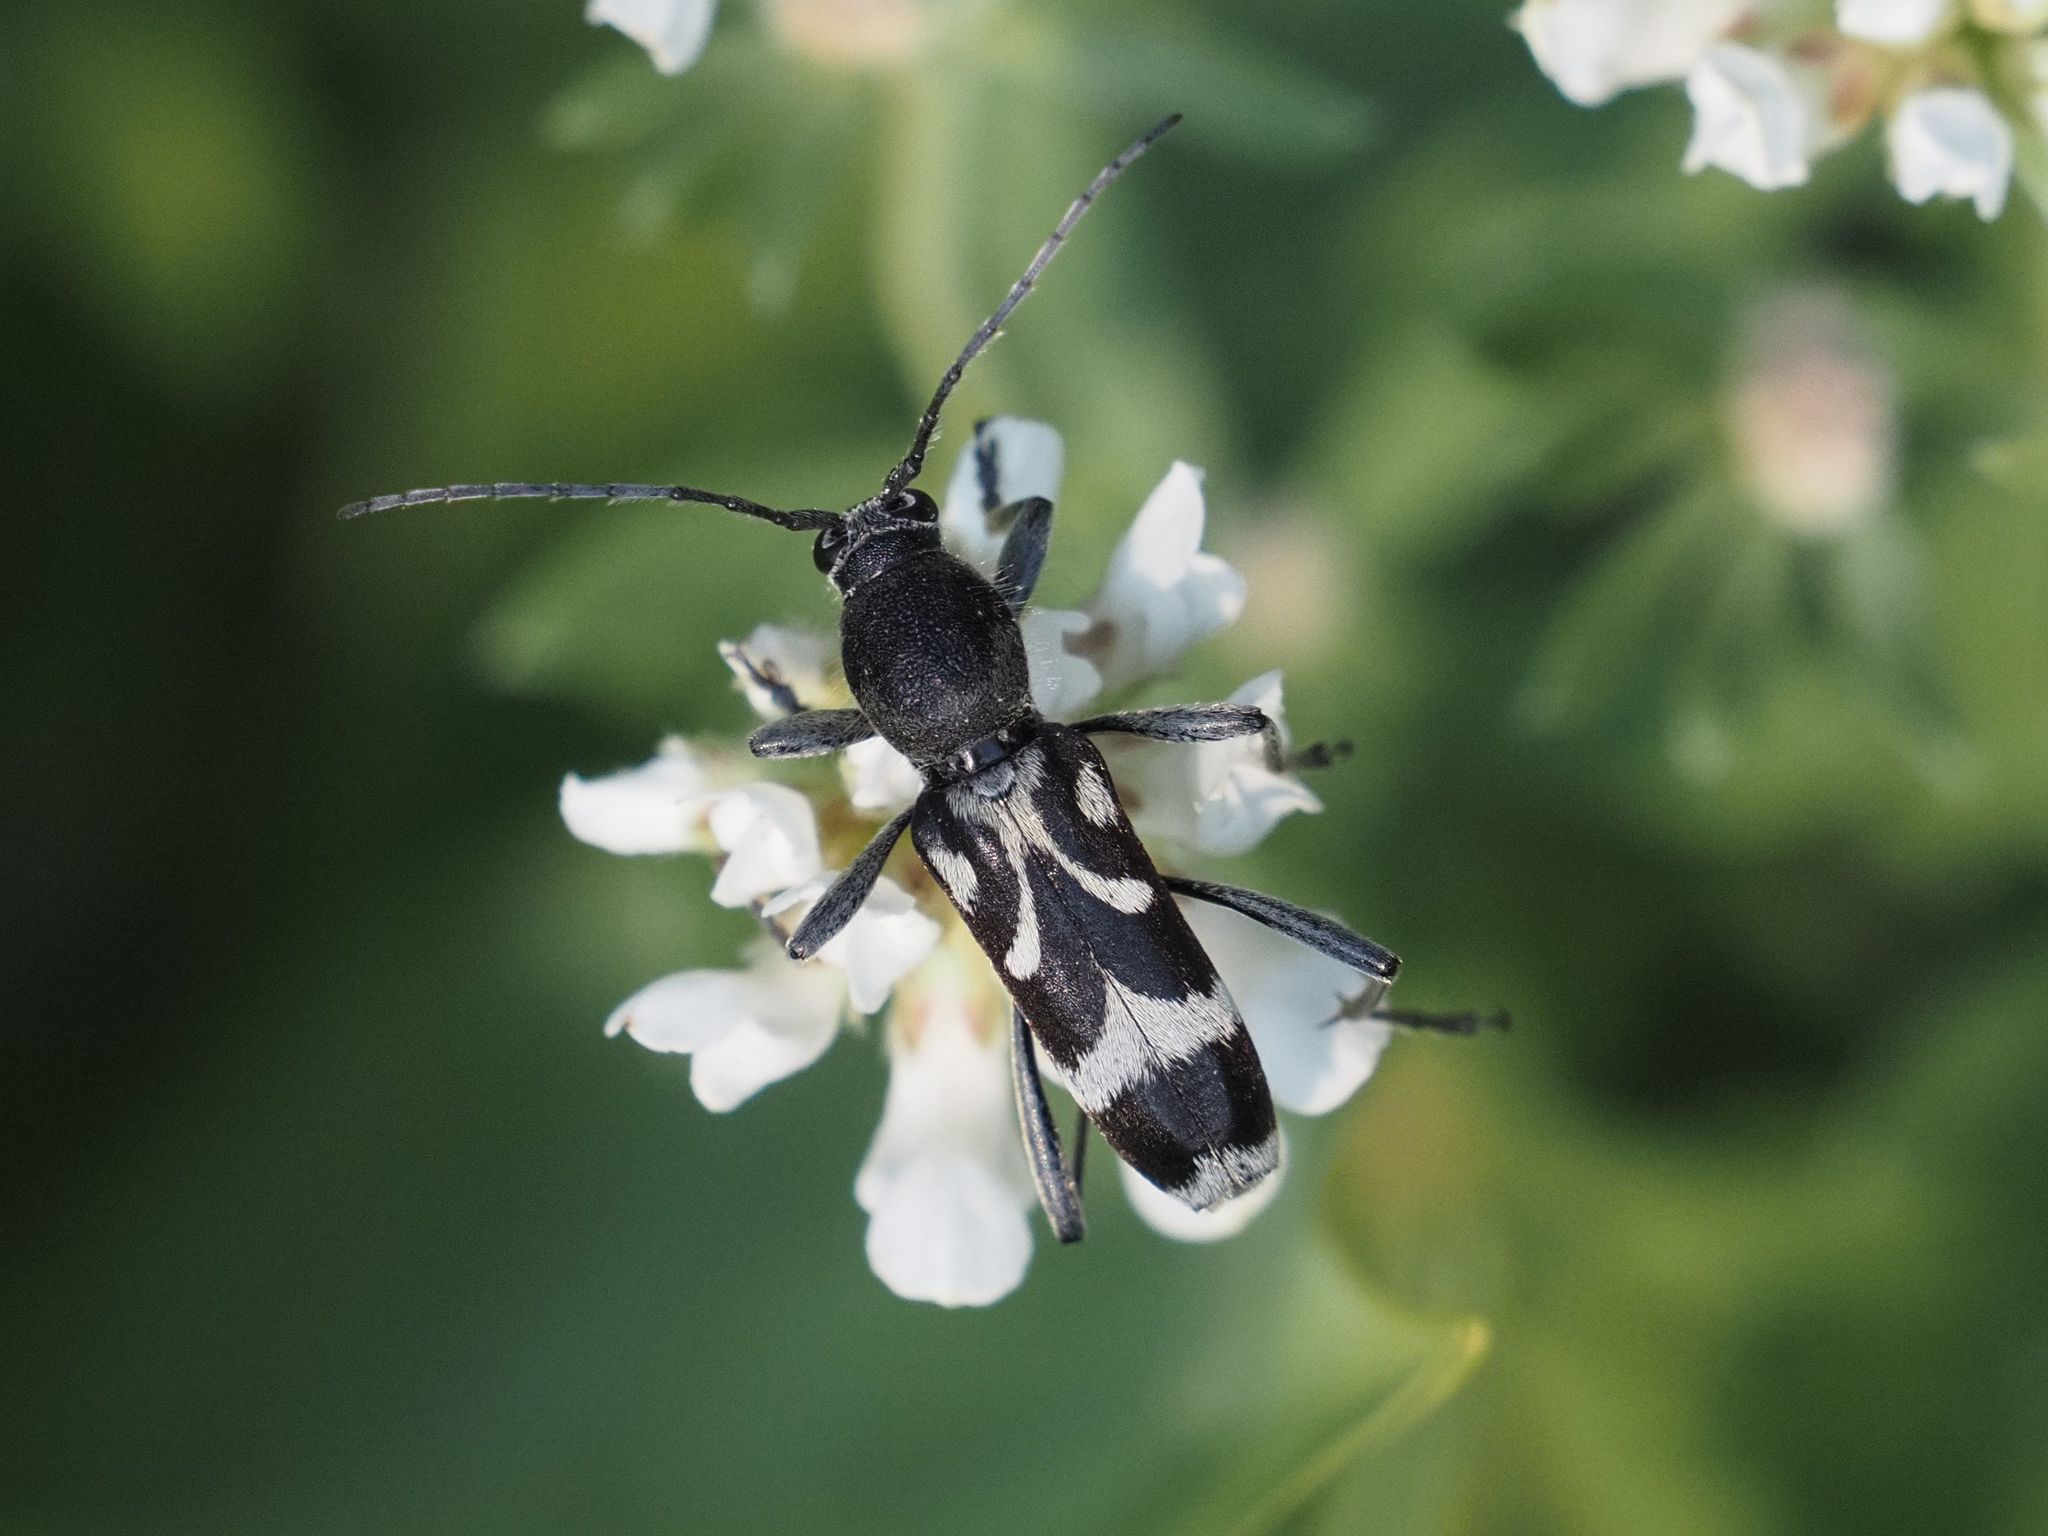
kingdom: Animalia
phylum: Arthropoda
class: Insecta
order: Coleoptera
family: Cerambycidae
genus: Chlorophorus
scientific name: Chlorophorus figuratus
